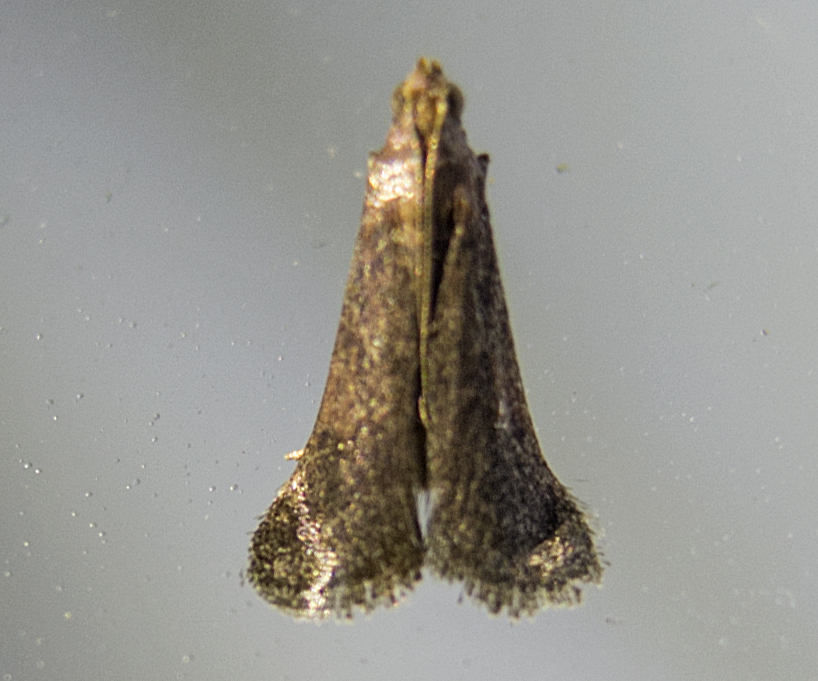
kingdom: Animalia
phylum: Arthropoda
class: Insecta
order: Lepidoptera
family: Pyralidae
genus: Euzophera
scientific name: Euzophera fuliginosella
